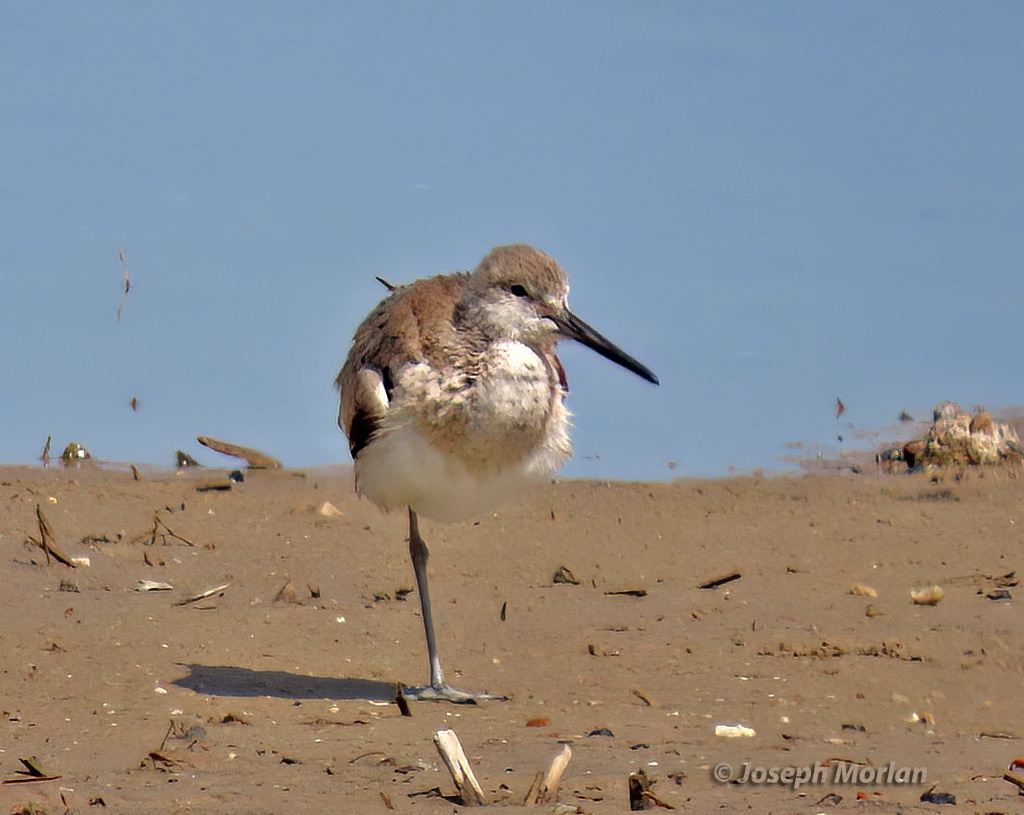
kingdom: Animalia
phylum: Chordata
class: Aves
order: Charadriiformes
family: Scolopacidae
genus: Tringa
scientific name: Tringa semipalmata
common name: Willet
